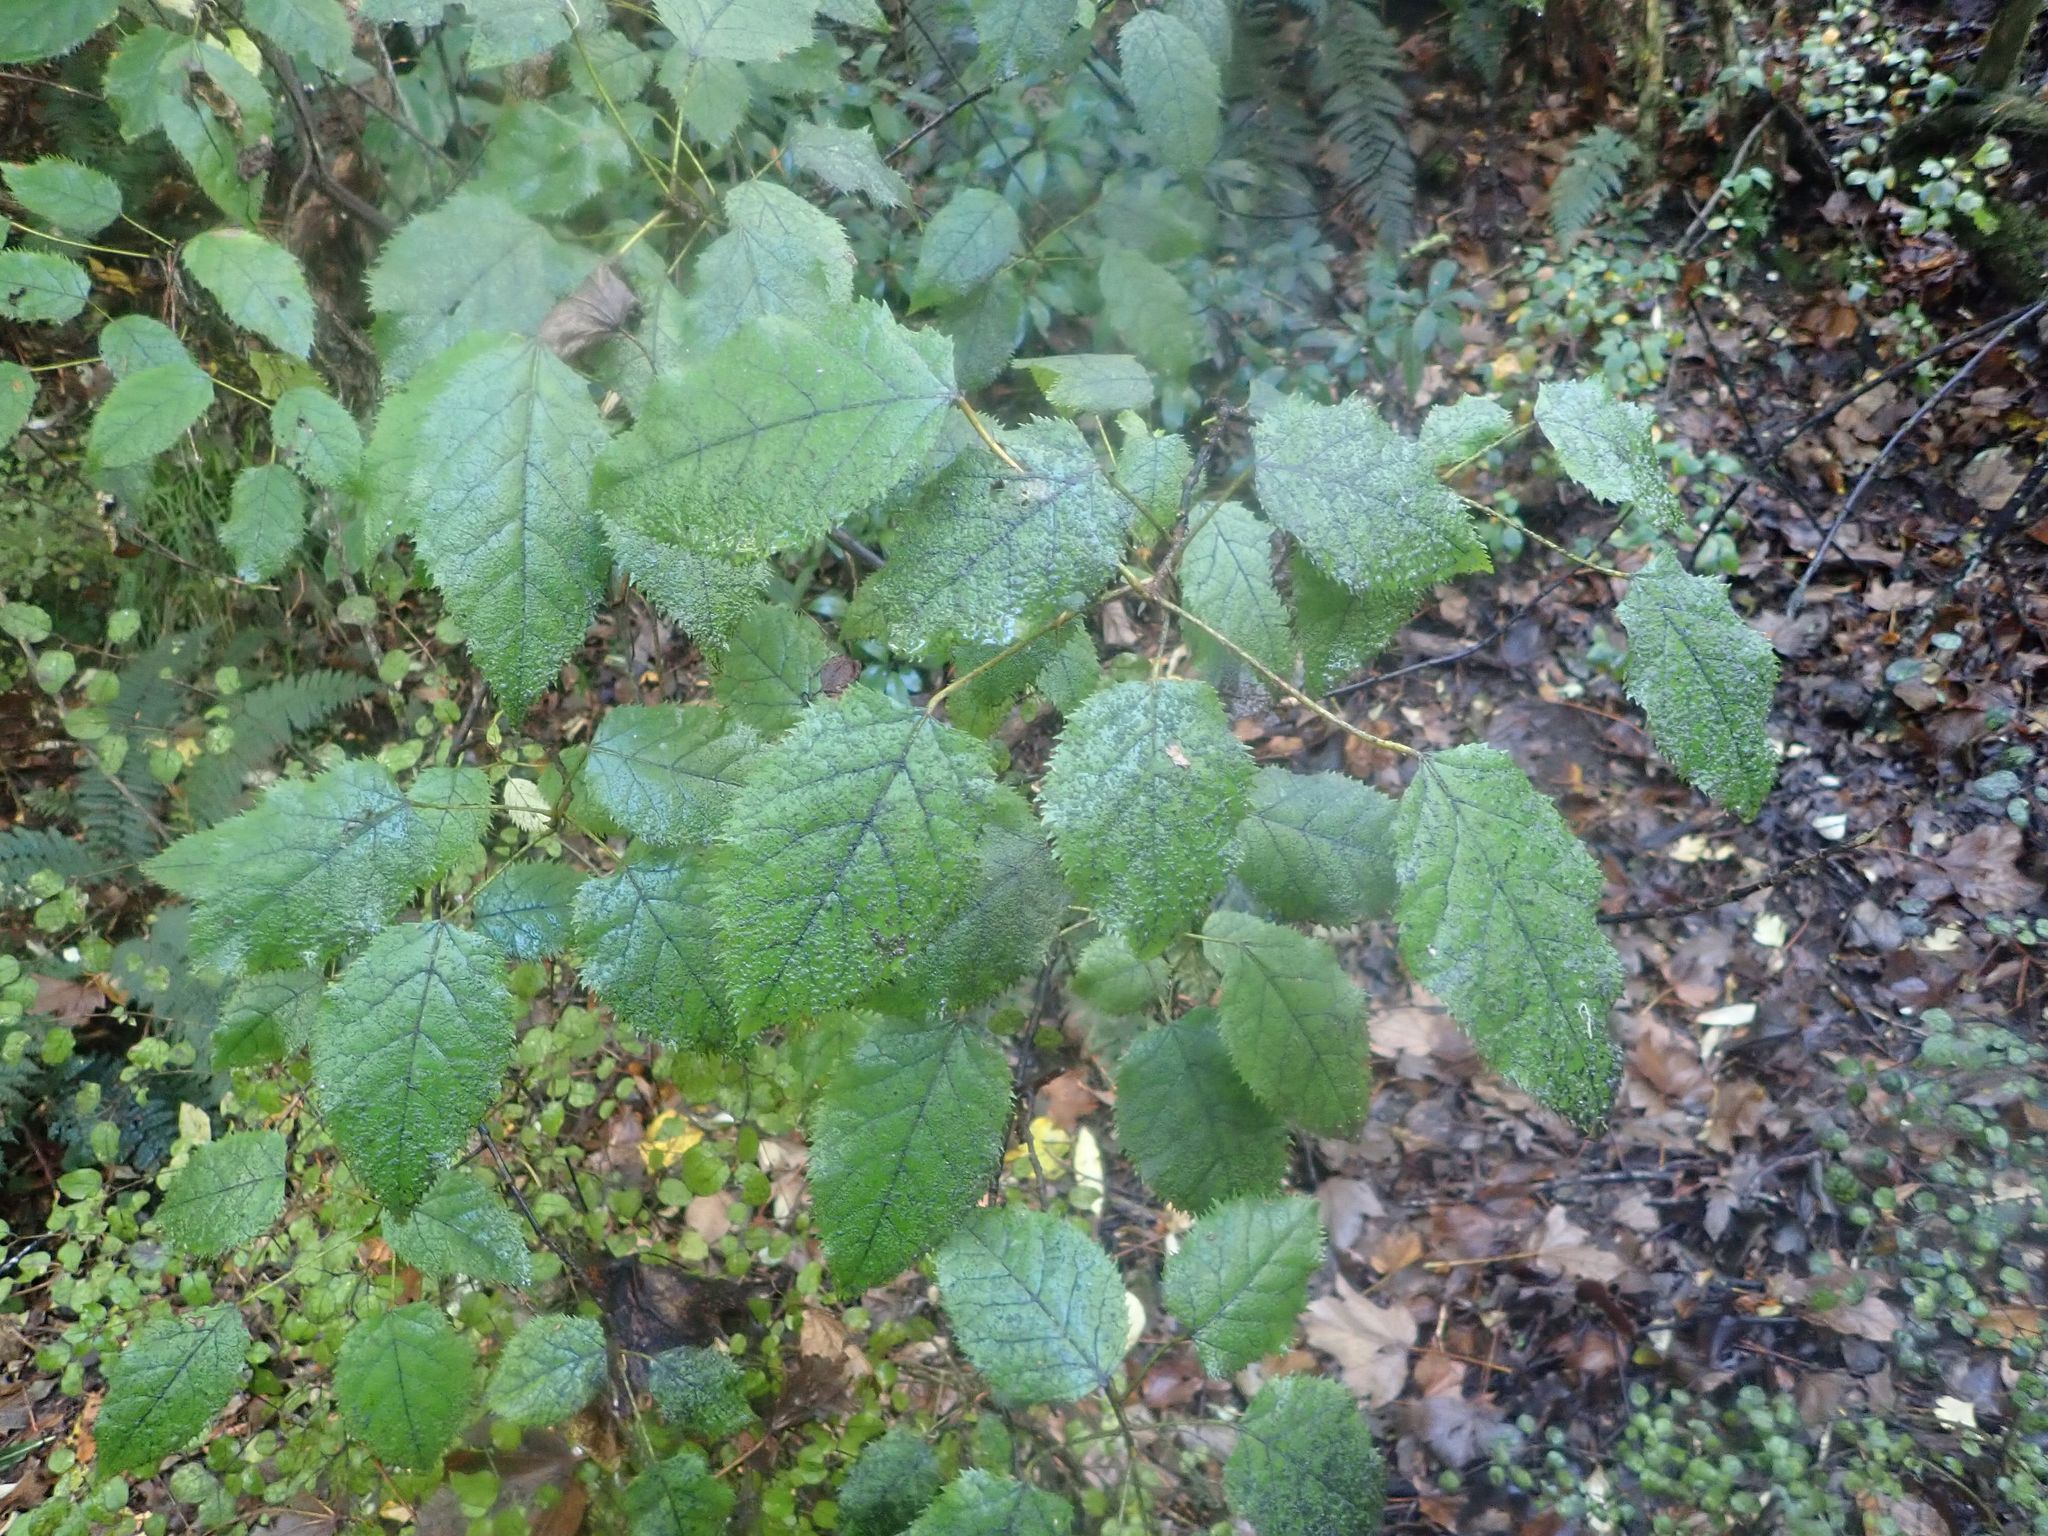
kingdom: Plantae
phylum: Tracheophyta
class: Magnoliopsida
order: Oxalidales
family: Elaeocarpaceae
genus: Aristotelia
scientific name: Aristotelia serrata
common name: New zealand wineberry
